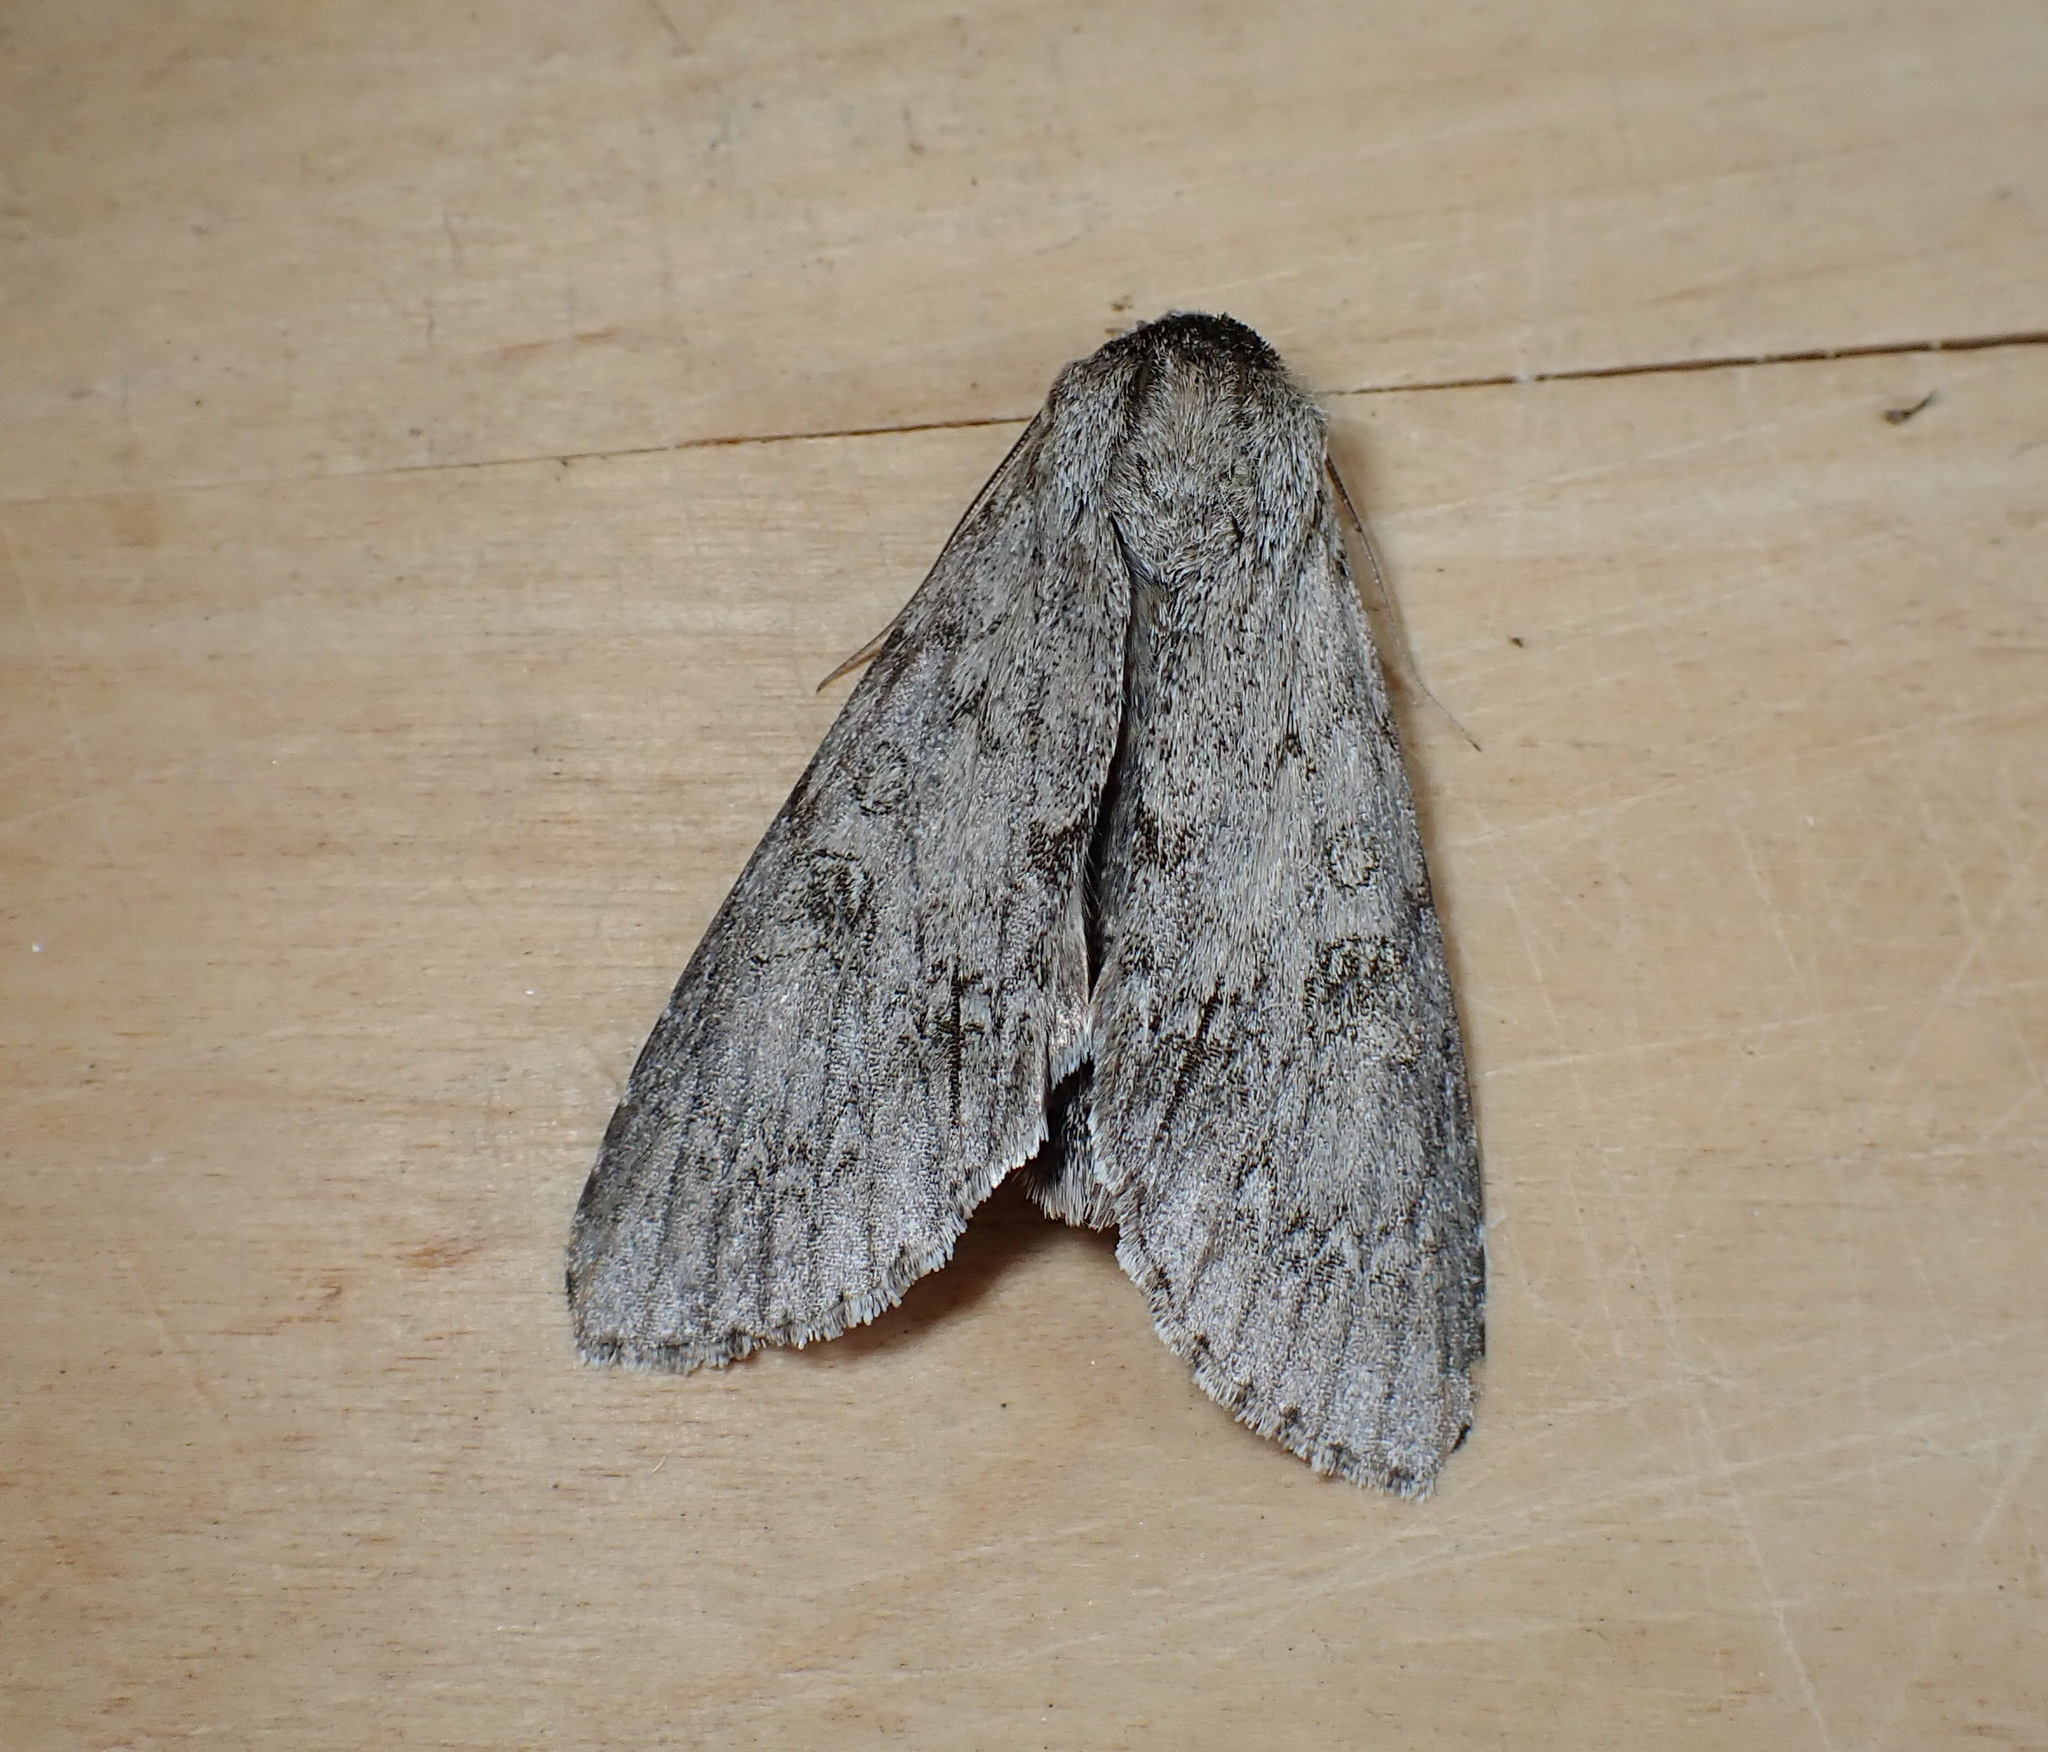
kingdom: Animalia
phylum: Arthropoda
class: Insecta
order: Lepidoptera
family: Noctuidae
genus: Acronicta
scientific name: Acronicta americana
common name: American dagger
